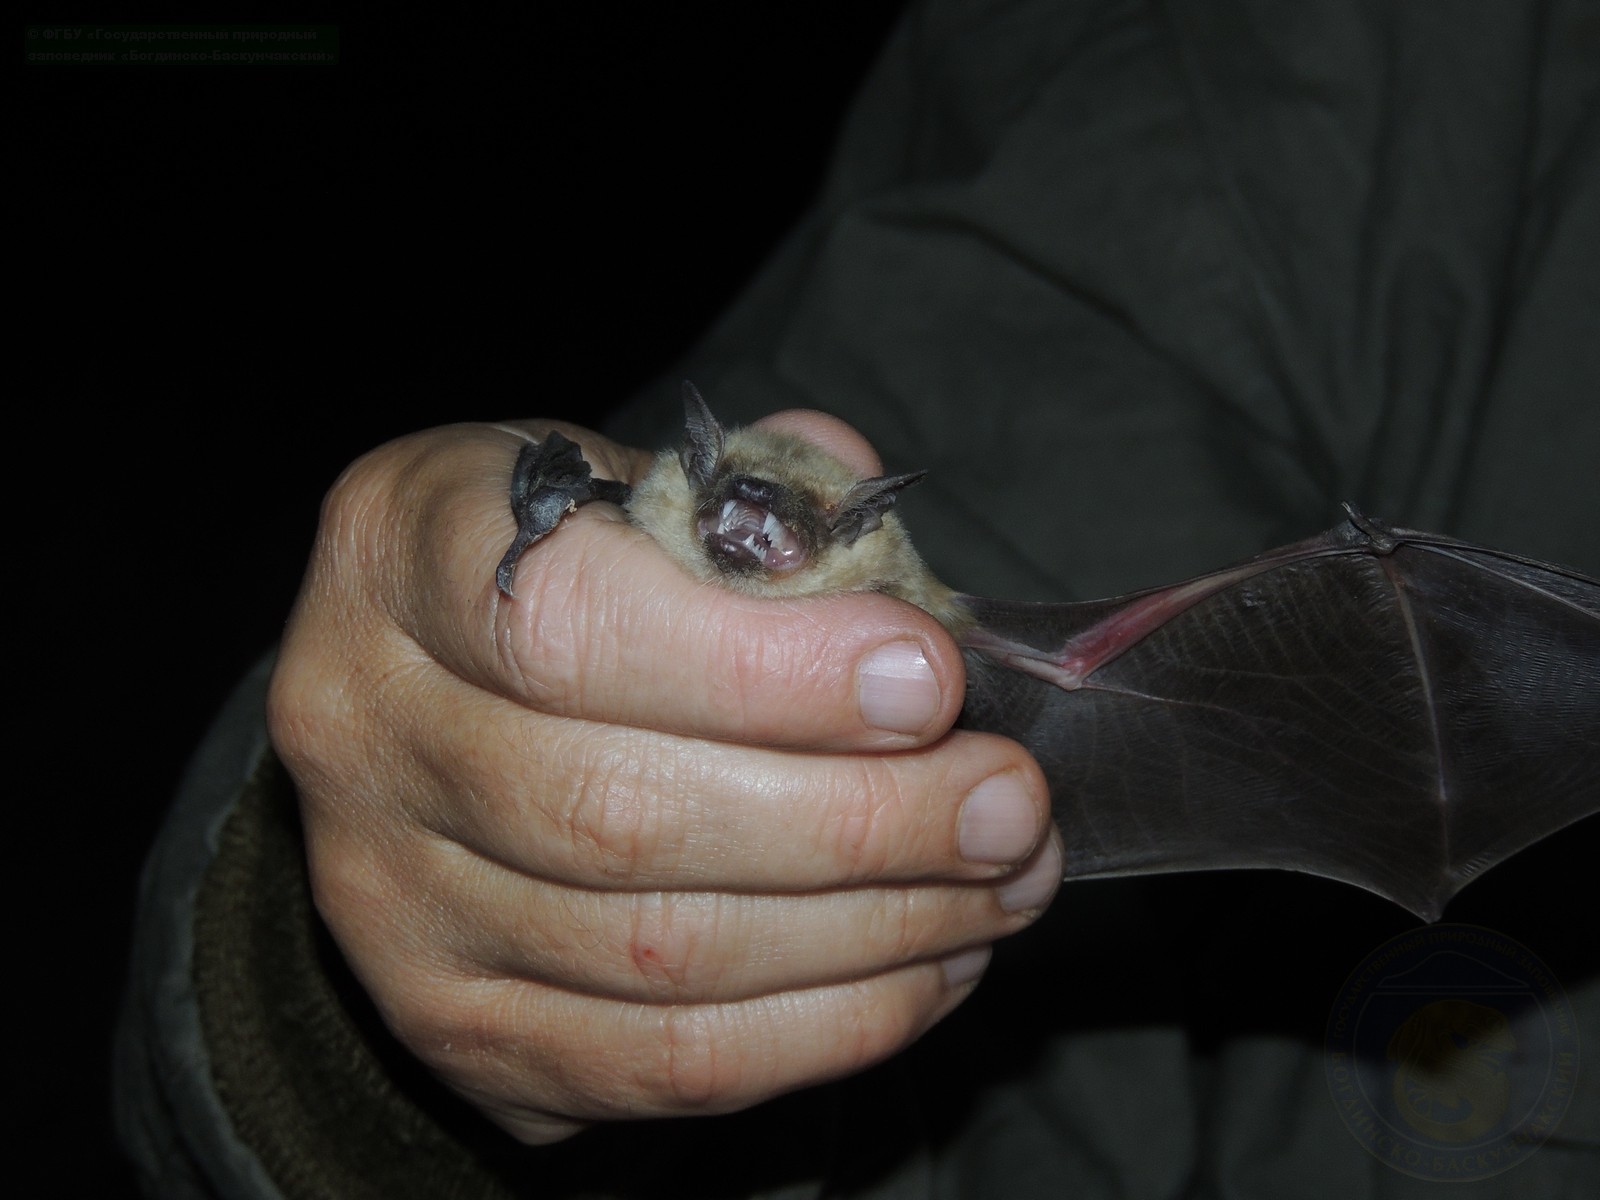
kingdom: Animalia
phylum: Chordata
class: Mammalia
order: Chiroptera
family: Vespertilionidae
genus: Eptesicus
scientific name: Eptesicus serotinus
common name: Serotine
